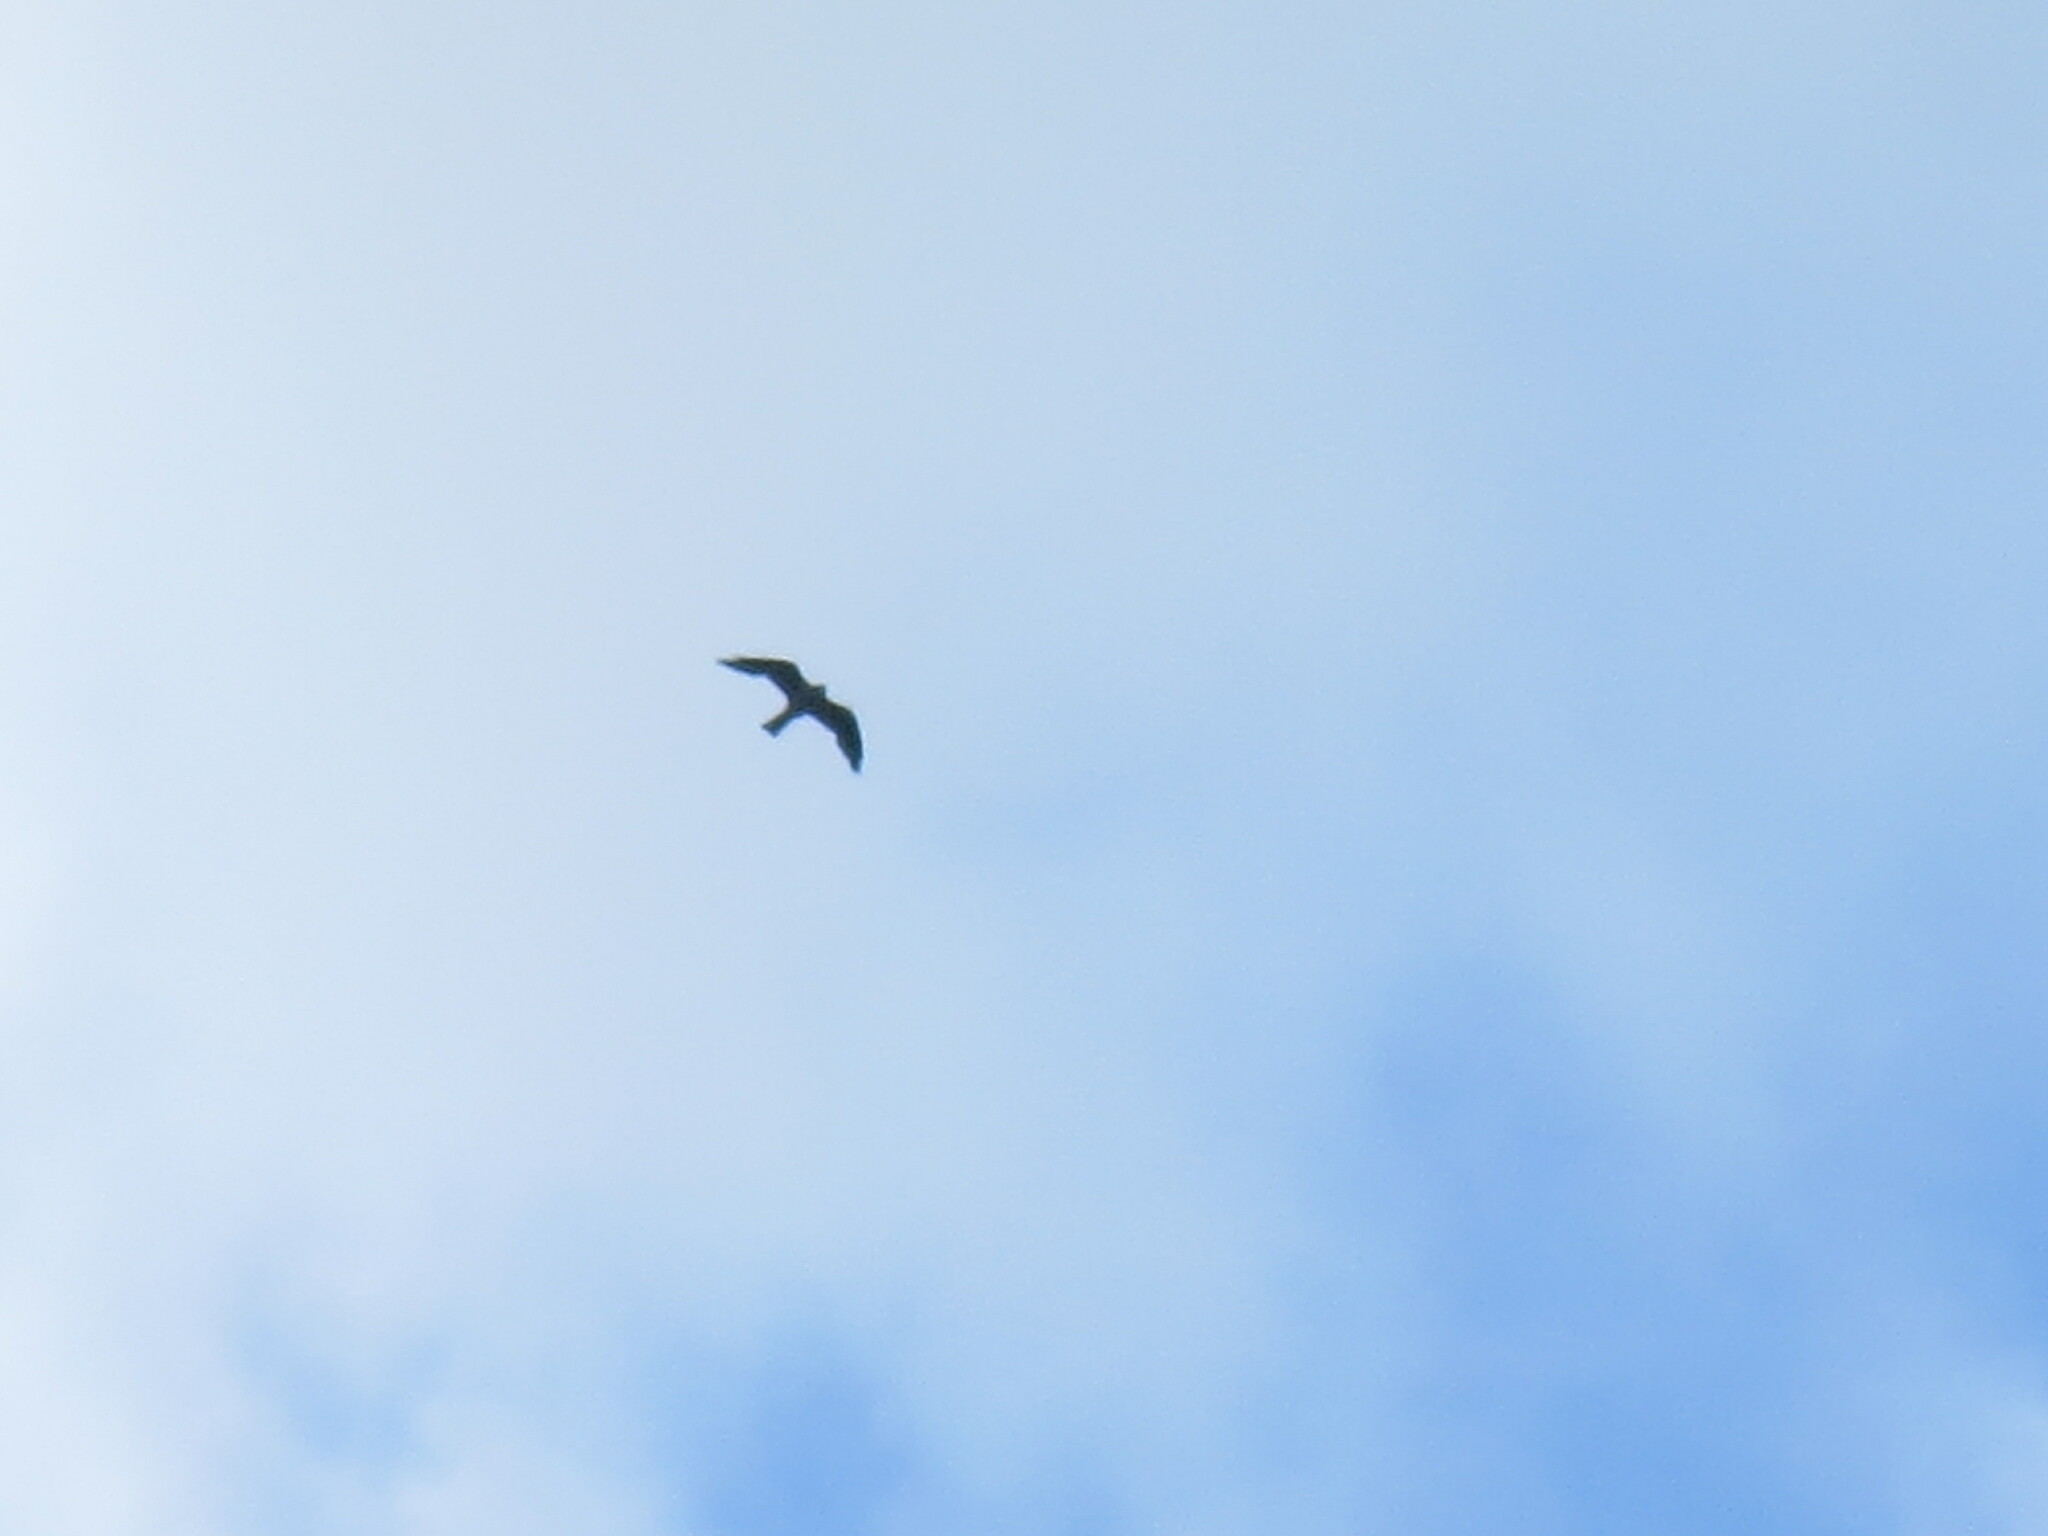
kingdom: Animalia
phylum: Chordata
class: Aves
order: Accipitriformes
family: Accipitridae
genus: Ictinia
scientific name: Ictinia mississippiensis
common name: Mississippi kite
